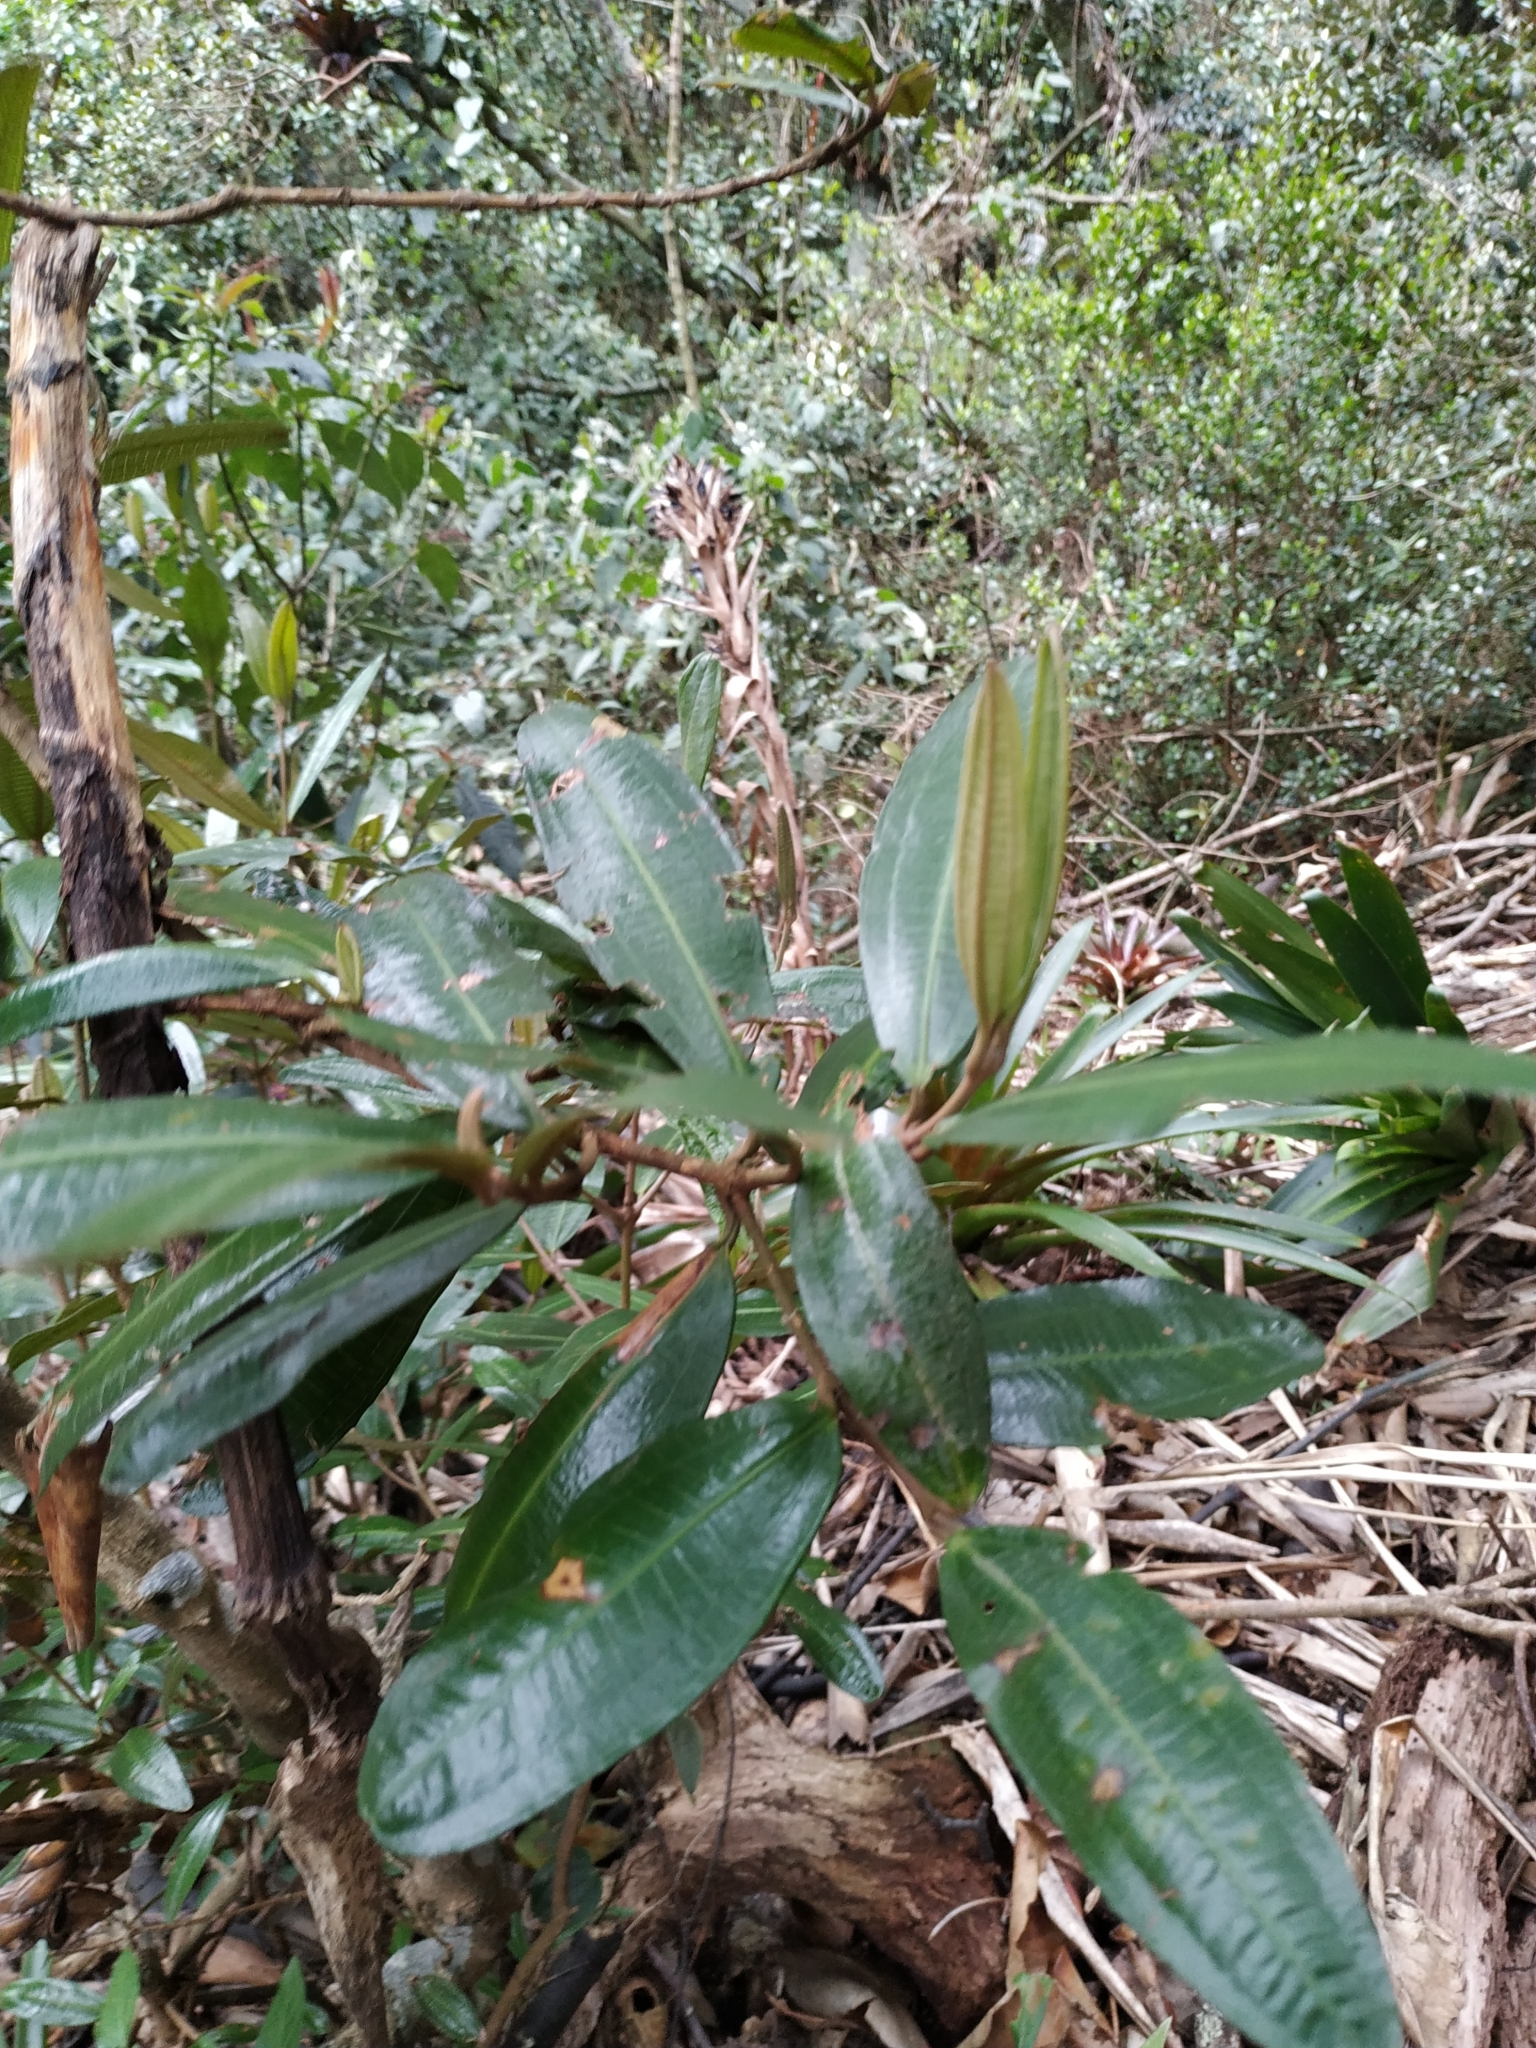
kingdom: Plantae
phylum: Tracheophyta
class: Magnoliopsida
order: Myrtales
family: Melastomataceae
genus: Miconia
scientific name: Miconia squamulosa
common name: Squamulose maya
